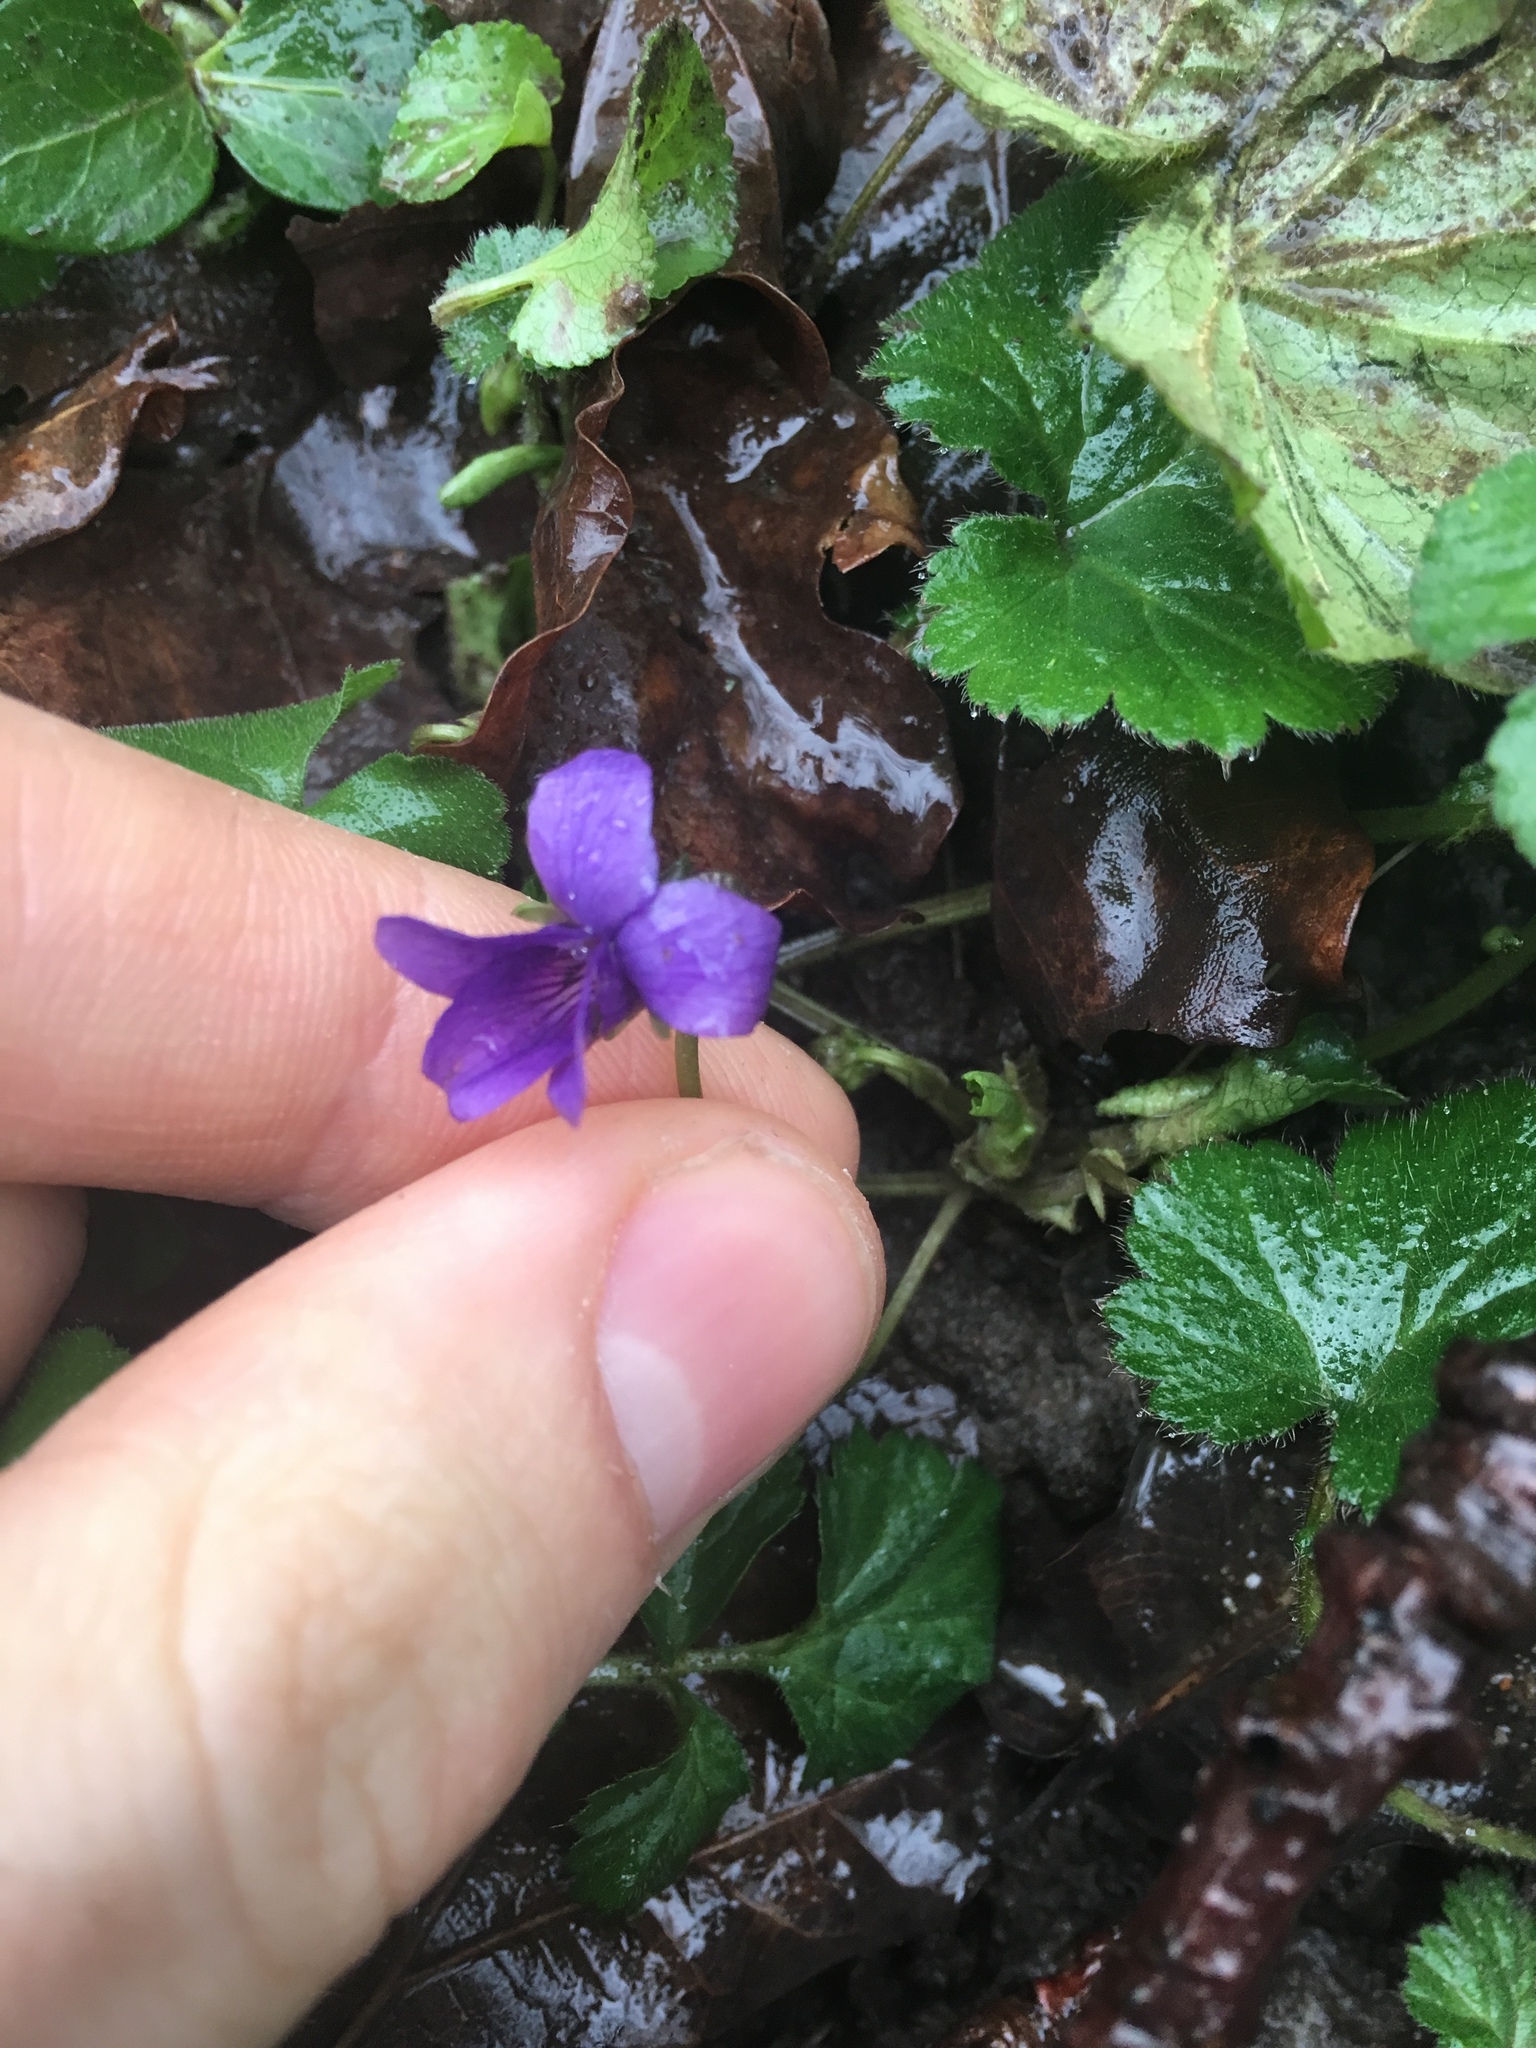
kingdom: Plantae
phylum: Tracheophyta
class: Magnoliopsida
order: Malpighiales
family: Violaceae
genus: Viola
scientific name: Viola odorata
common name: Sweet violet
